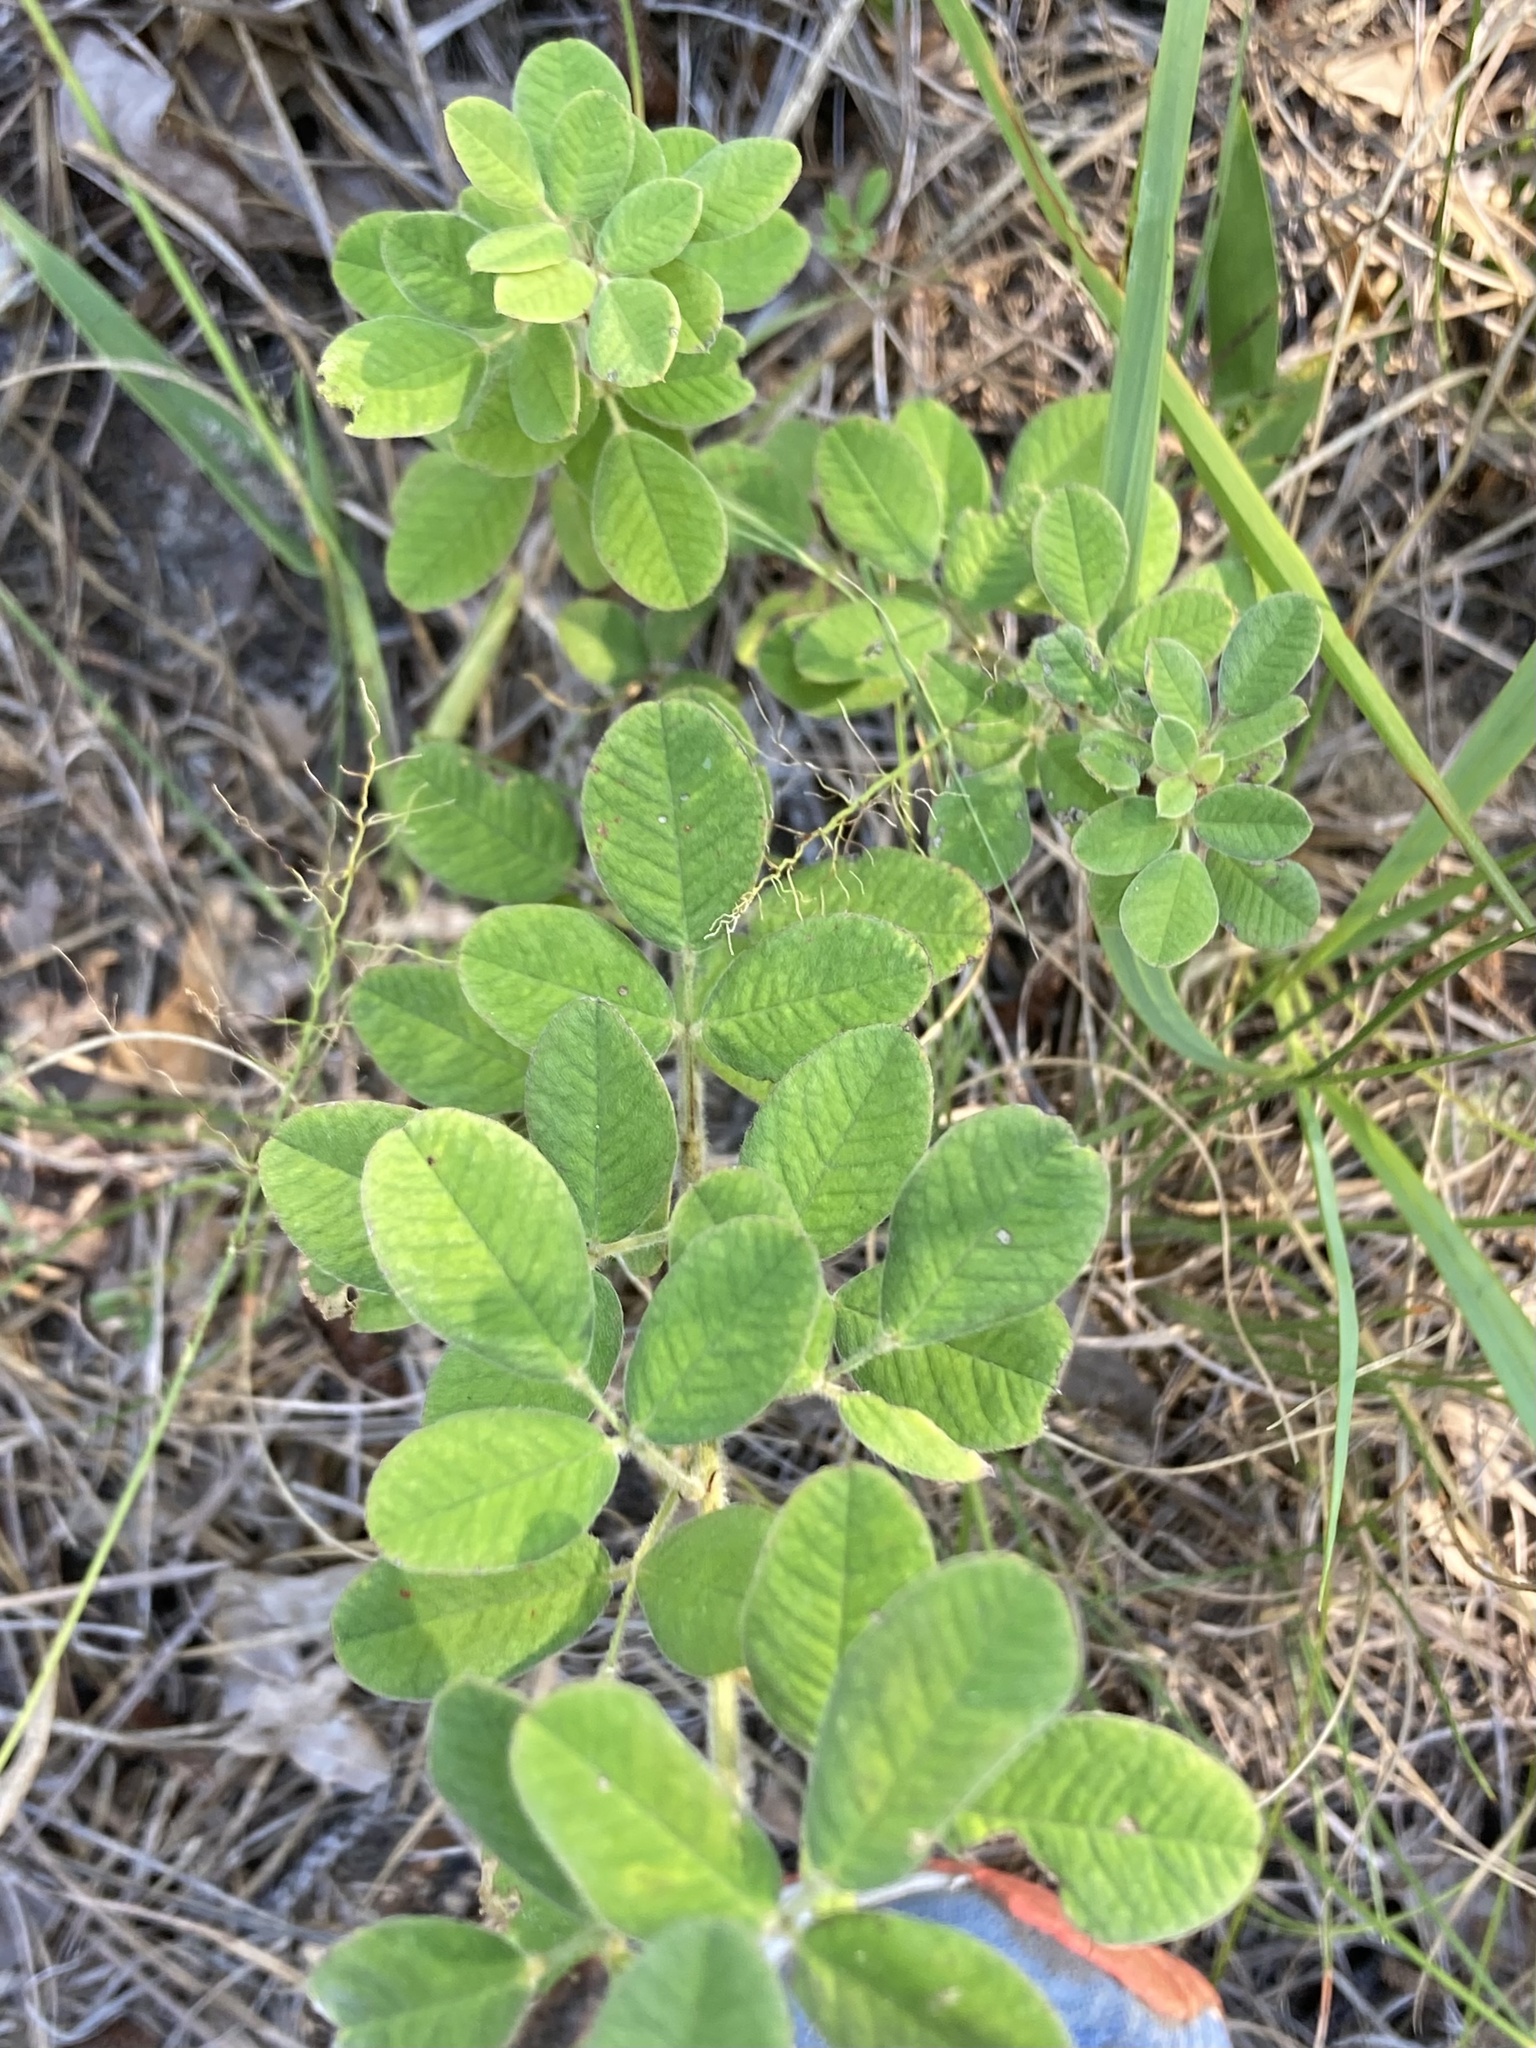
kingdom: Plantae
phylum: Tracheophyta
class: Magnoliopsida
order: Fabales
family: Fabaceae
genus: Lespedeza
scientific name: Lespedeza hirta
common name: Hairy lespedeza
